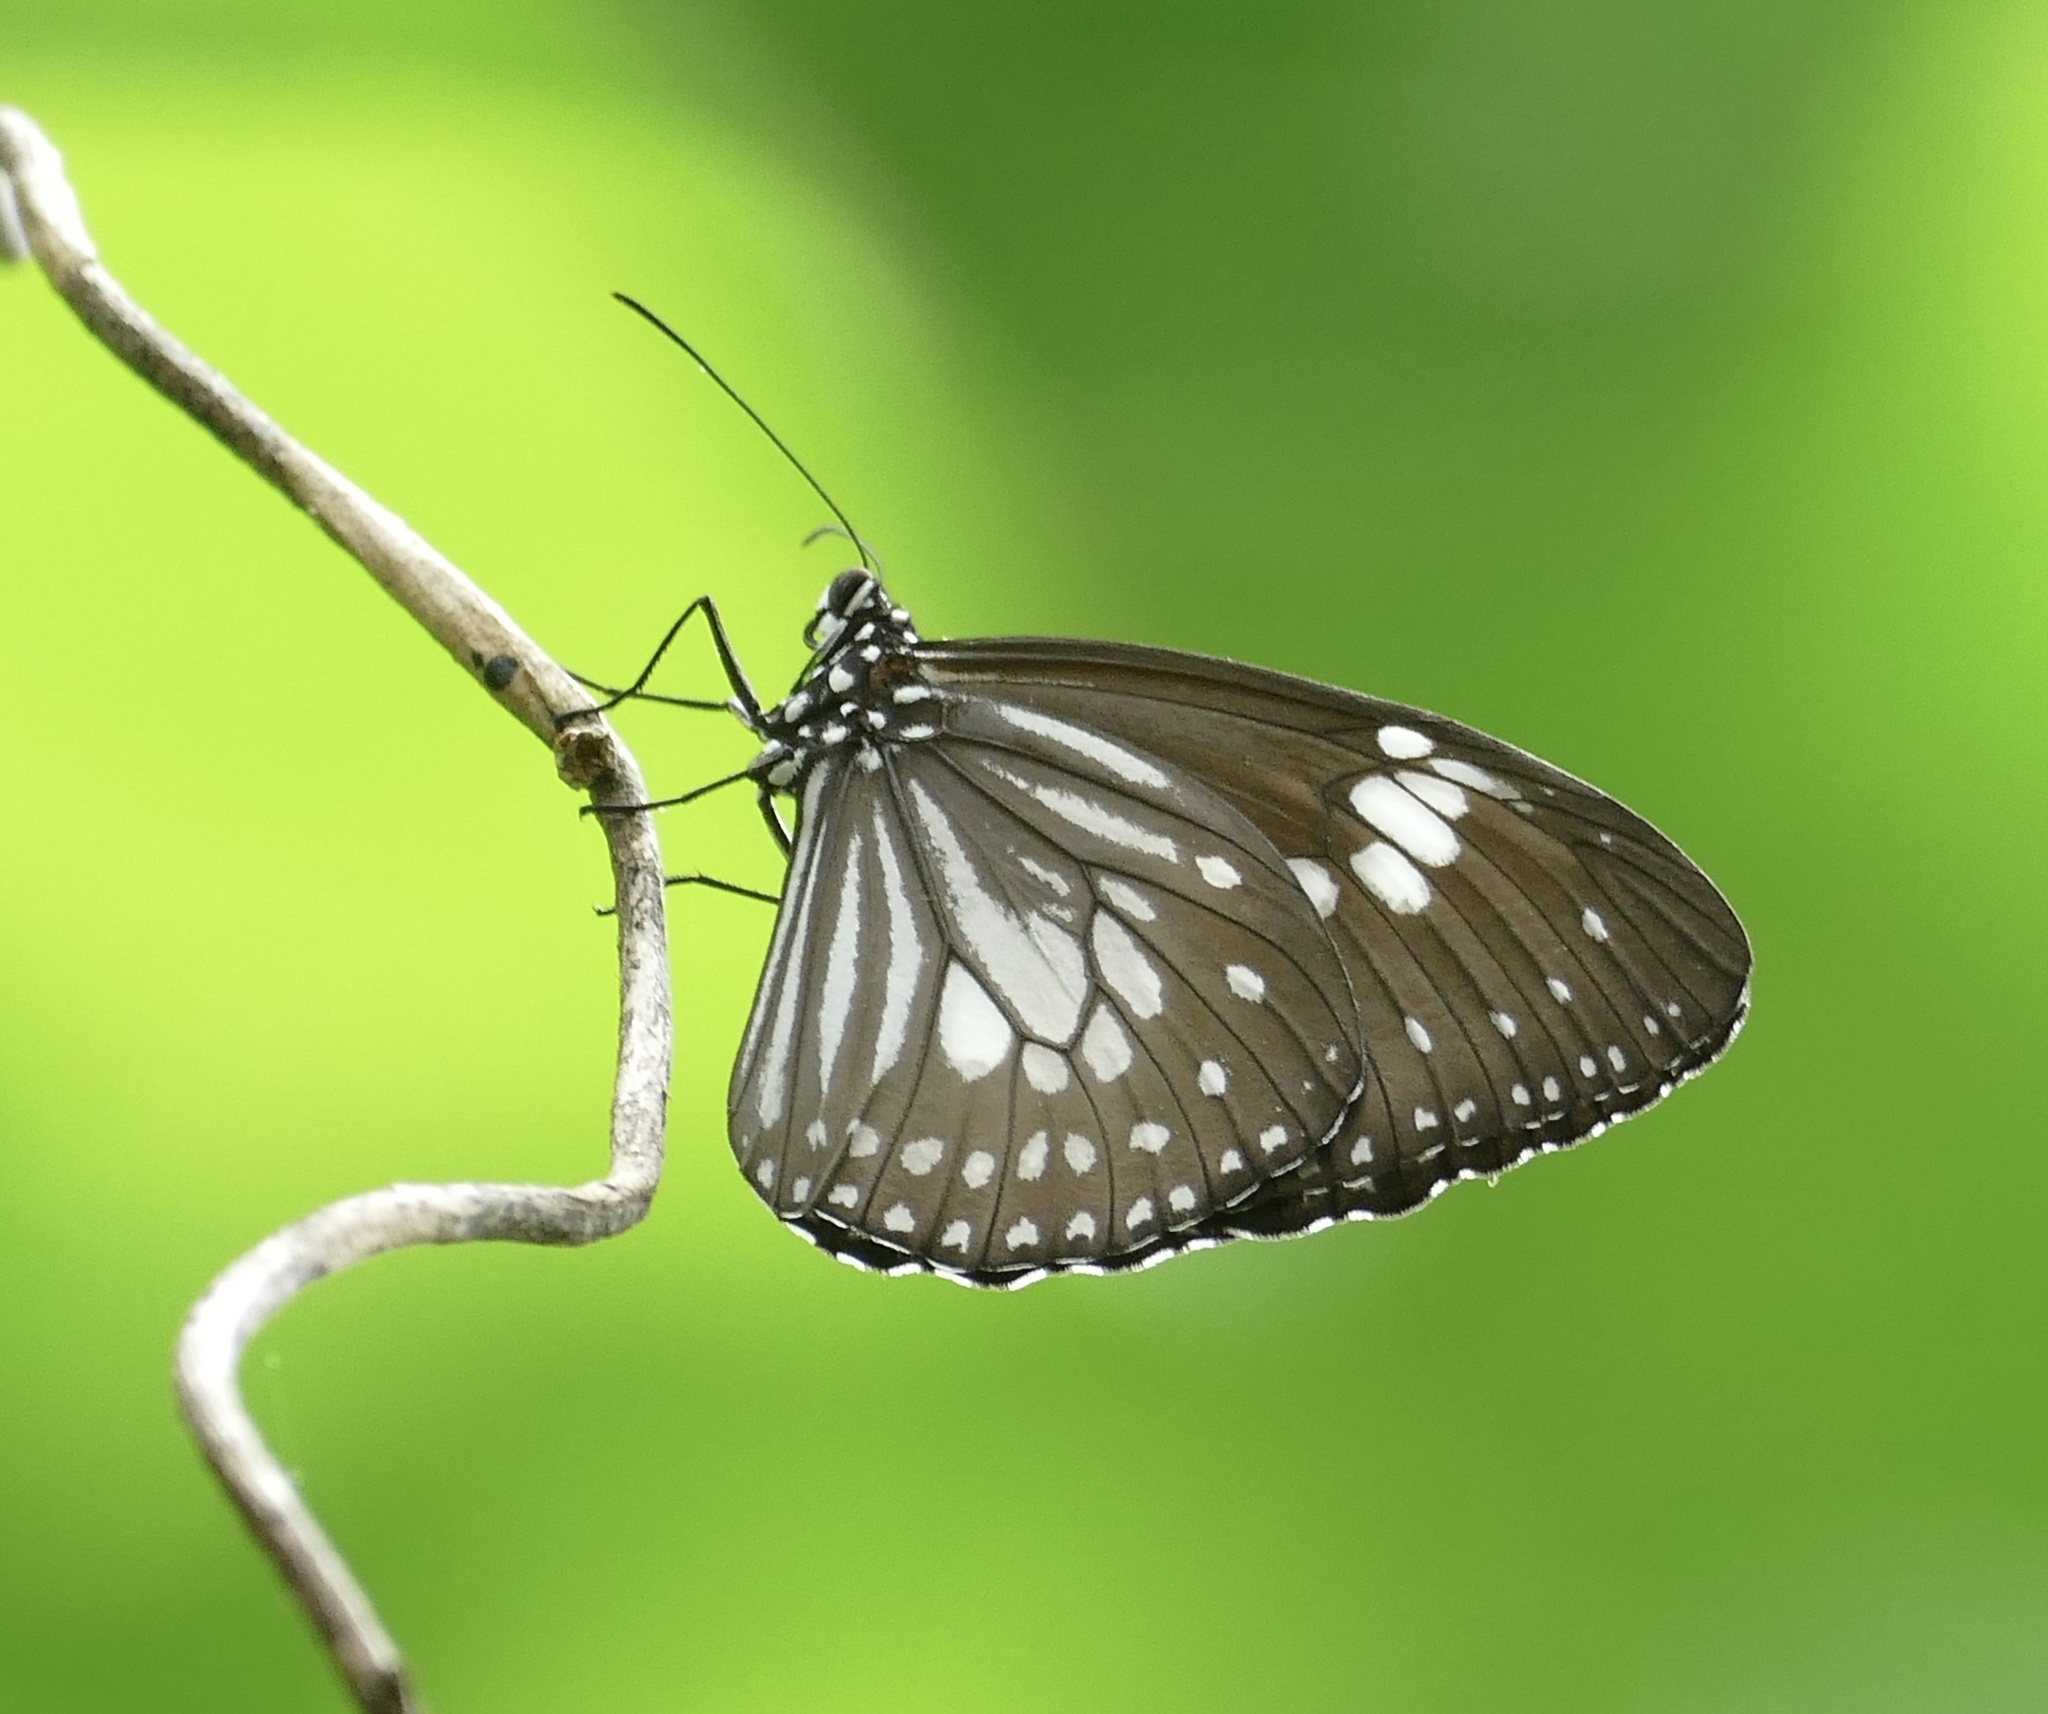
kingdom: Animalia
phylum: Arthropoda
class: Insecta
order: Lepidoptera
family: Nymphalidae
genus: Euploea
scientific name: Euploea hewitsonii
